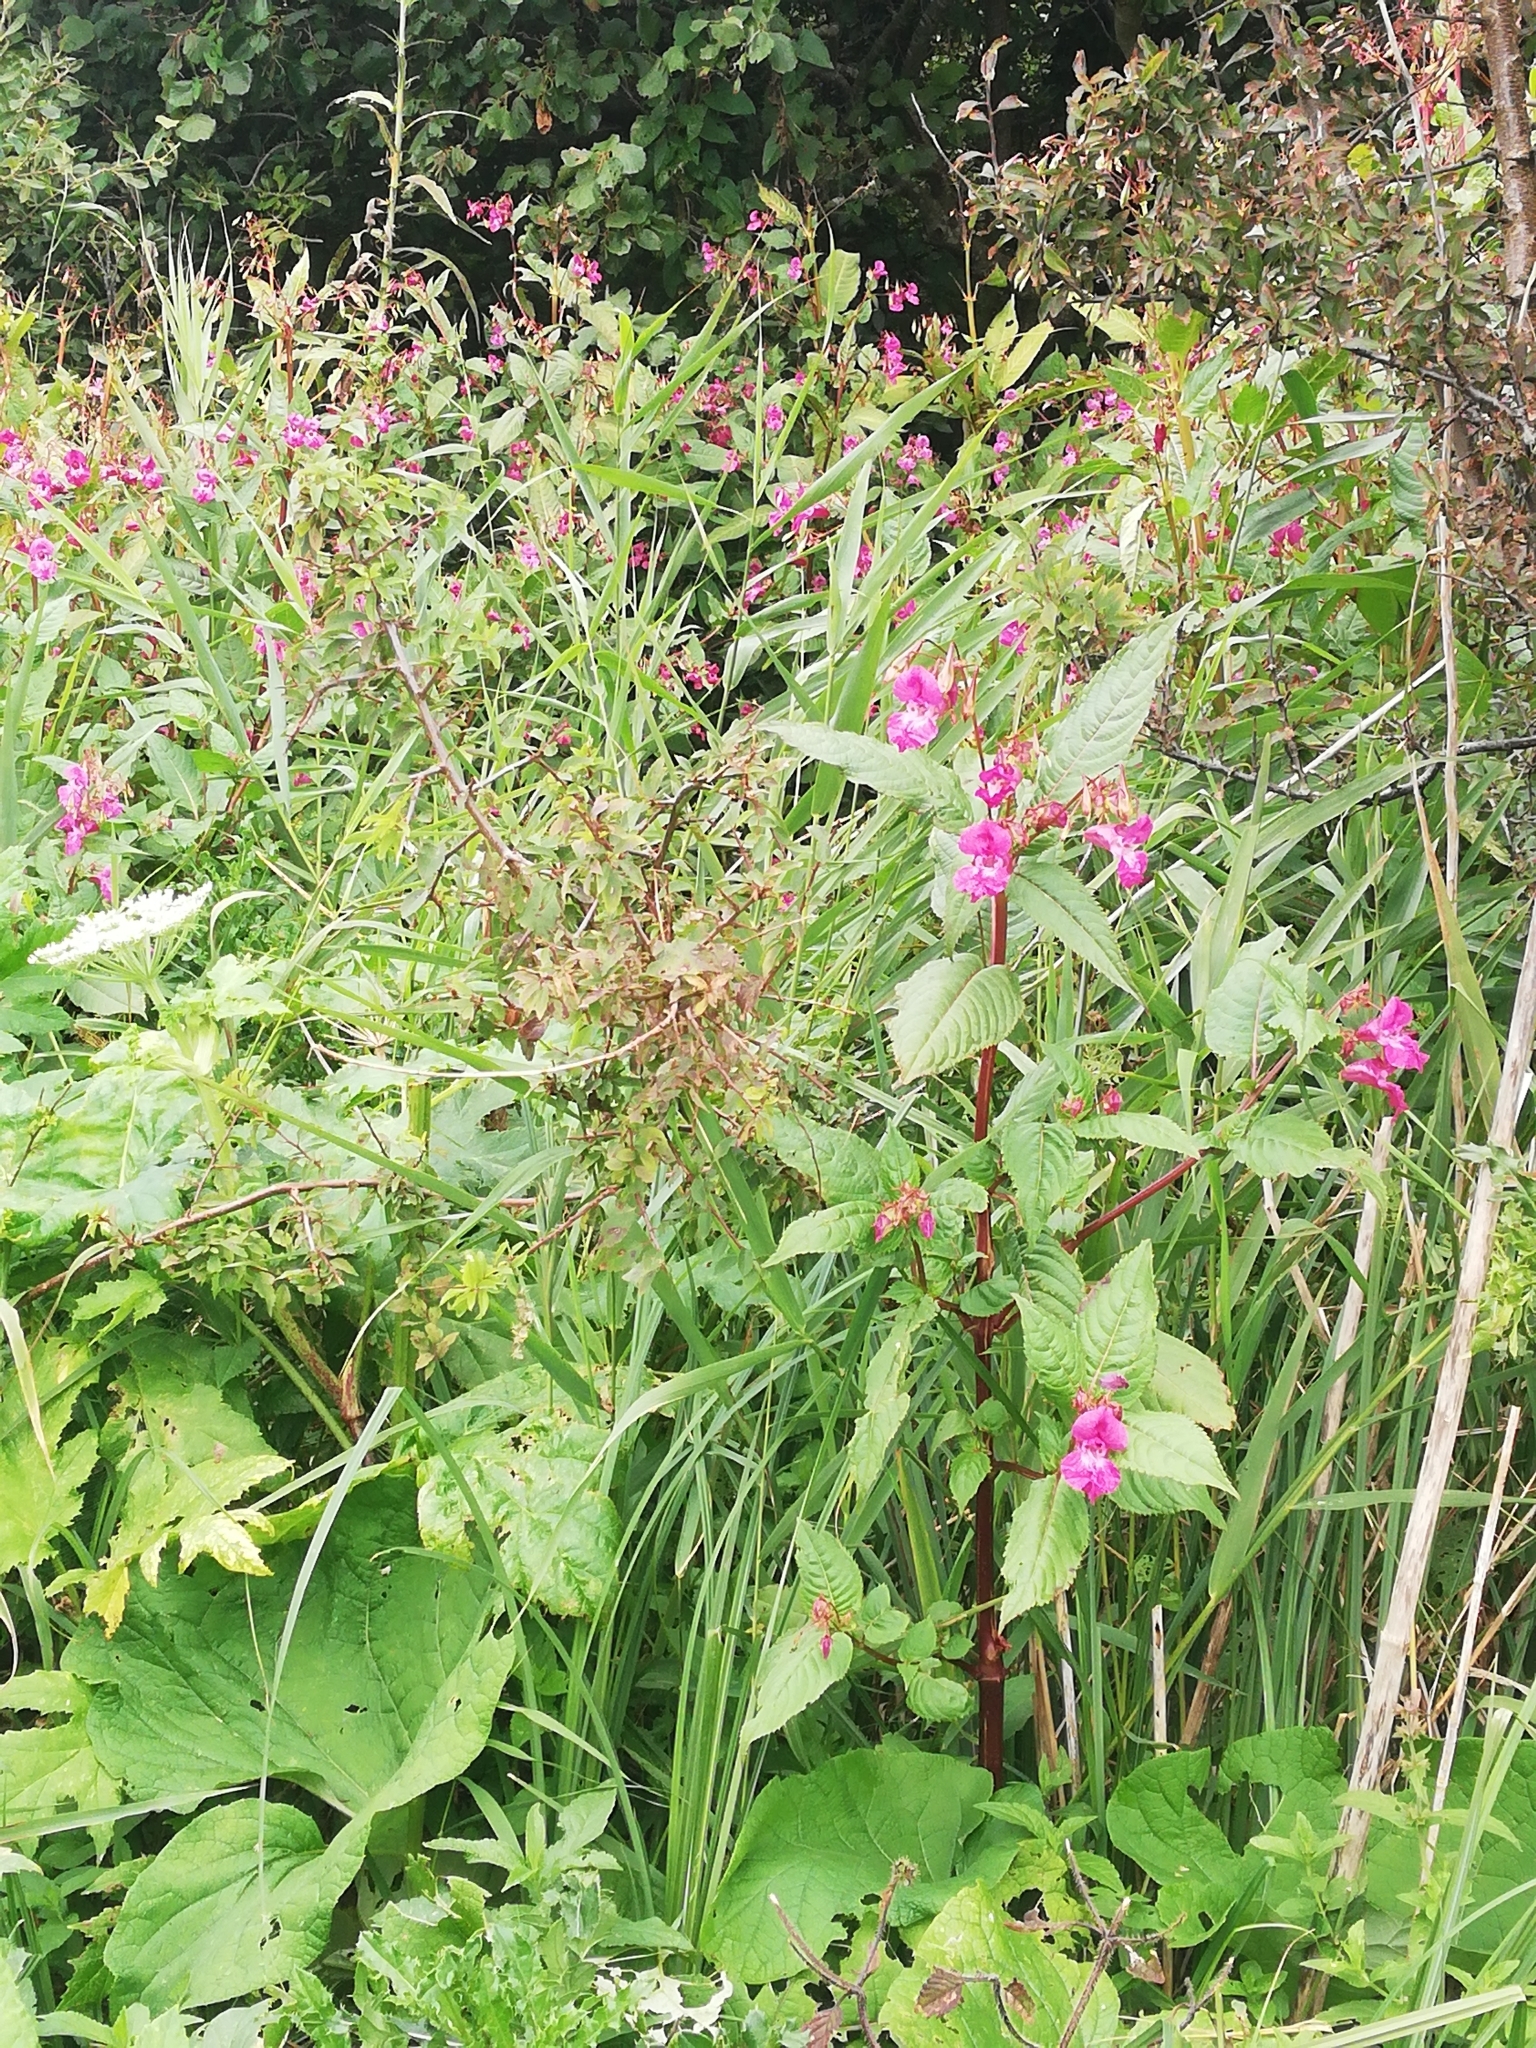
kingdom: Plantae
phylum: Tracheophyta
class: Magnoliopsida
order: Ericales
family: Balsaminaceae
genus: Impatiens
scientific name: Impatiens glandulifera
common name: Himalayan balsam
